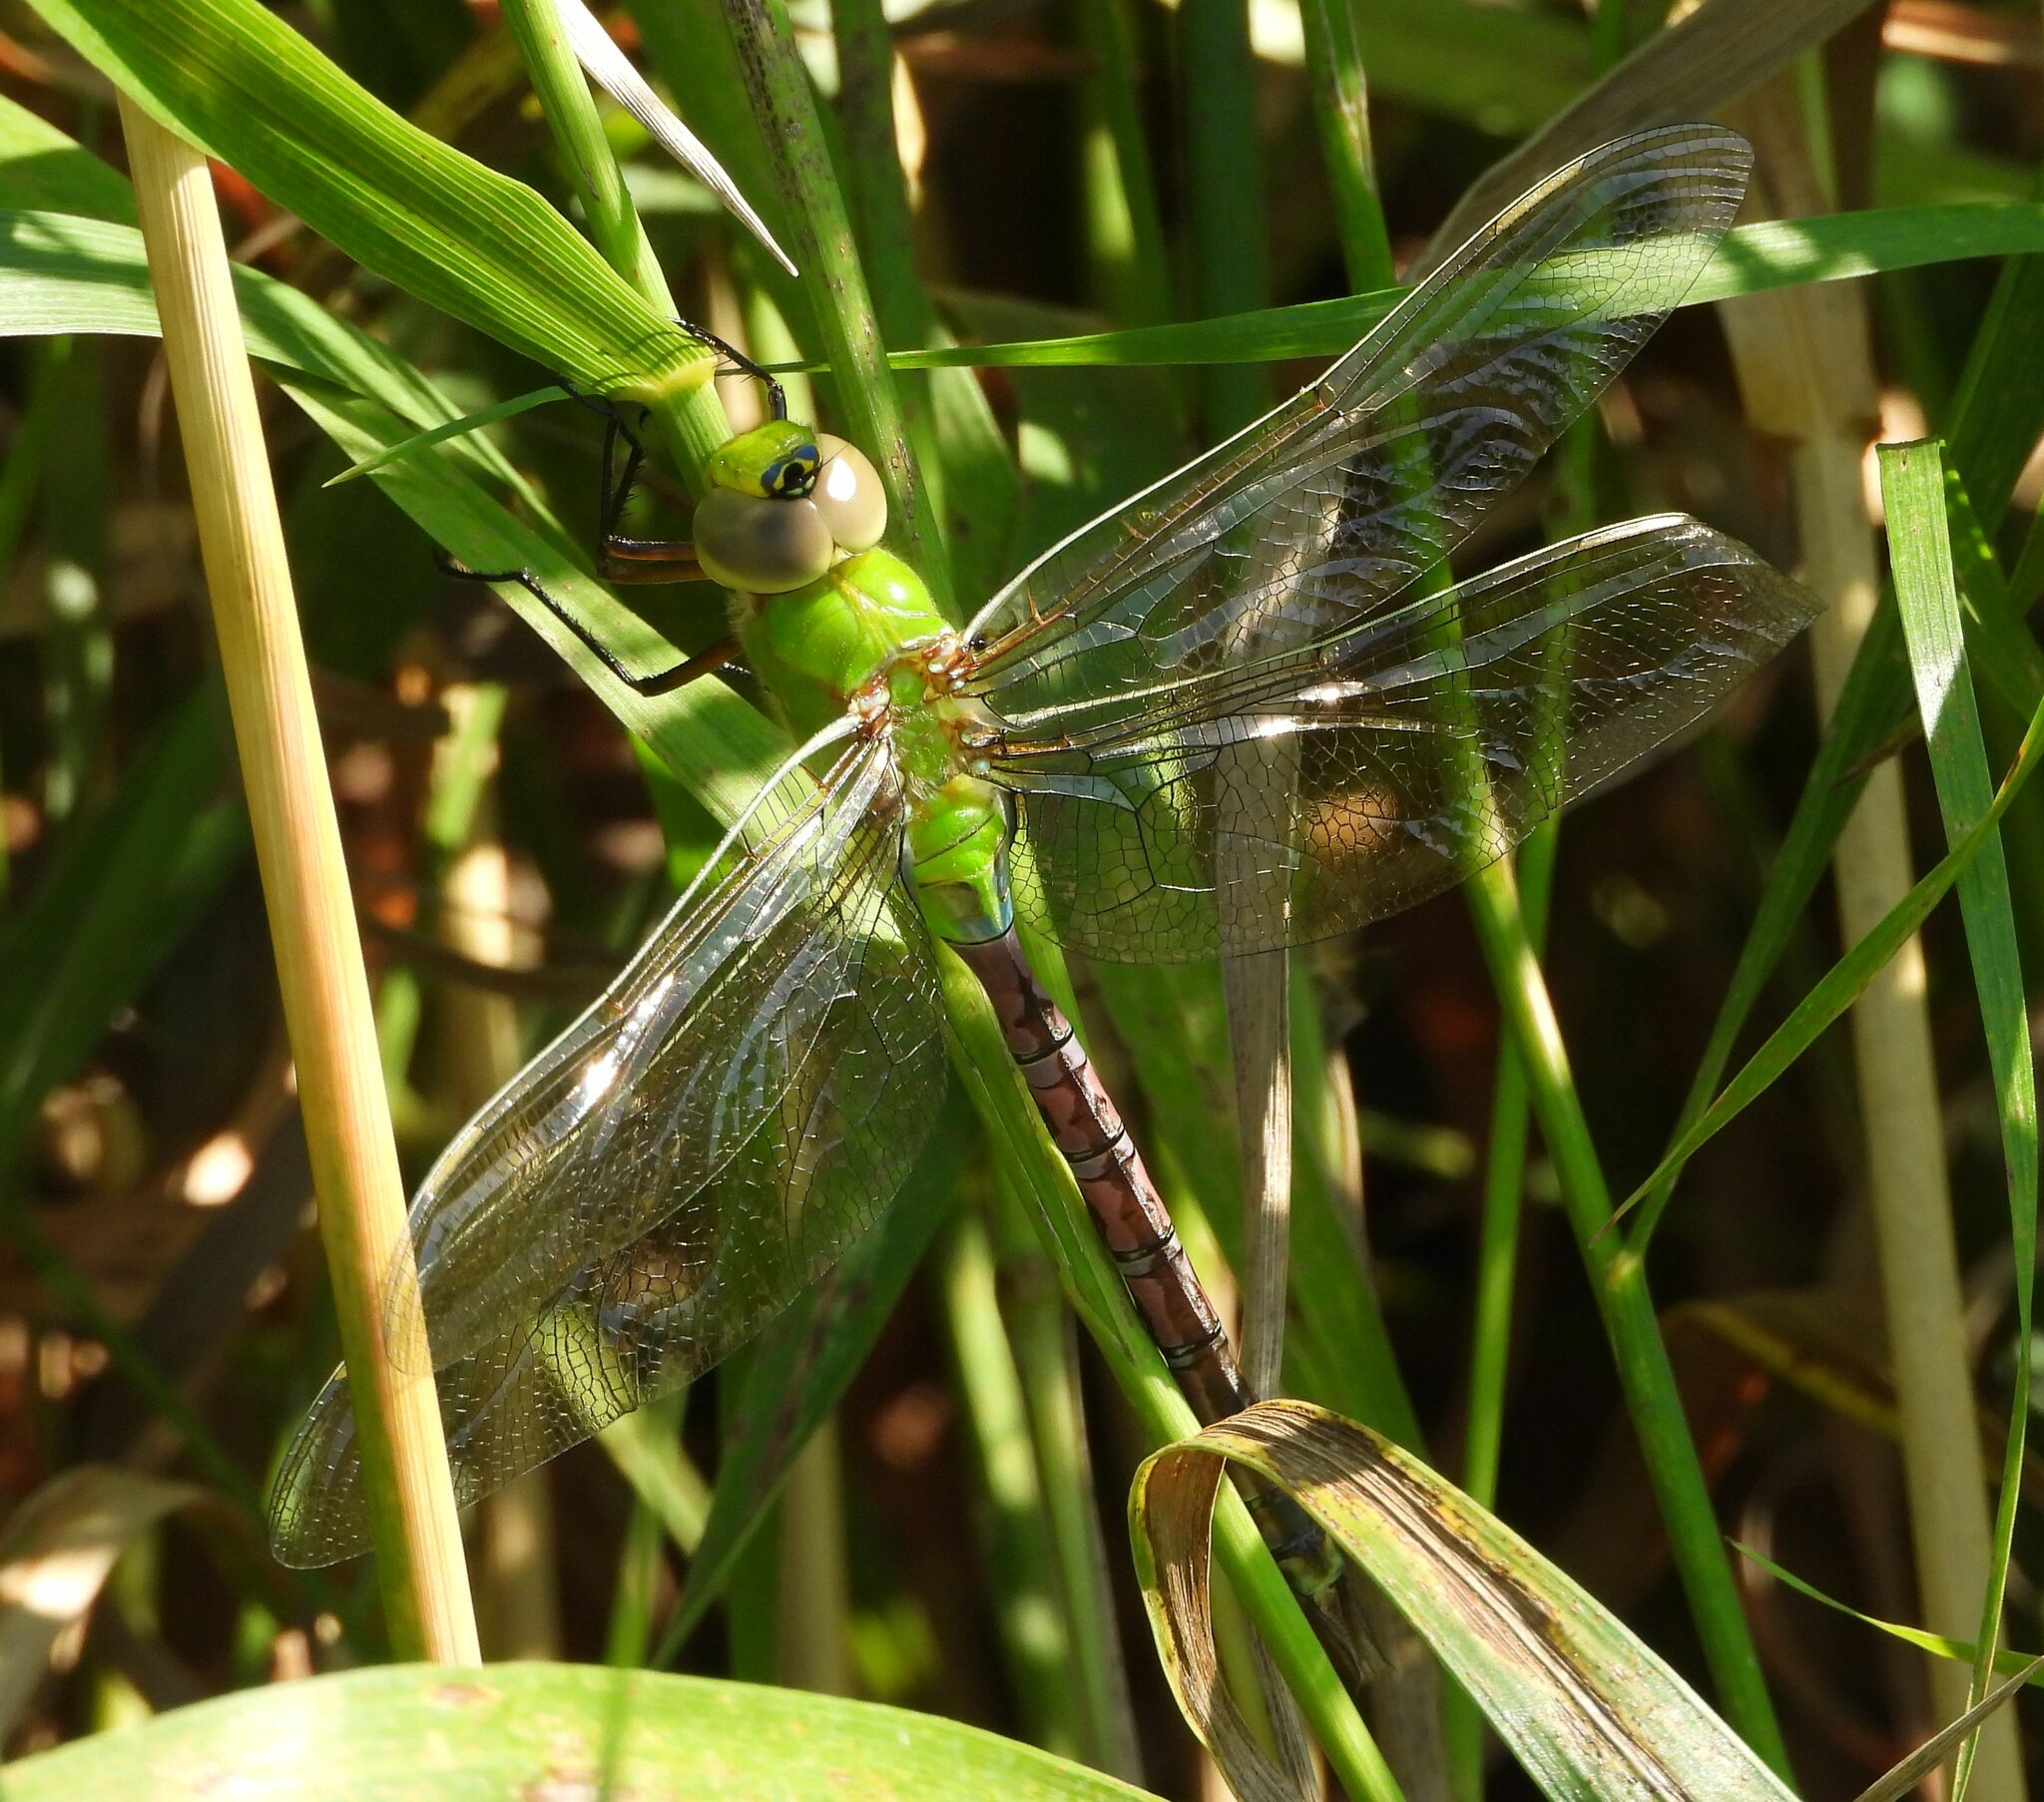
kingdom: Animalia
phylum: Arthropoda
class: Insecta
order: Odonata
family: Aeshnidae
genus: Anax
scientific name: Anax junius
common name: Common green darner
